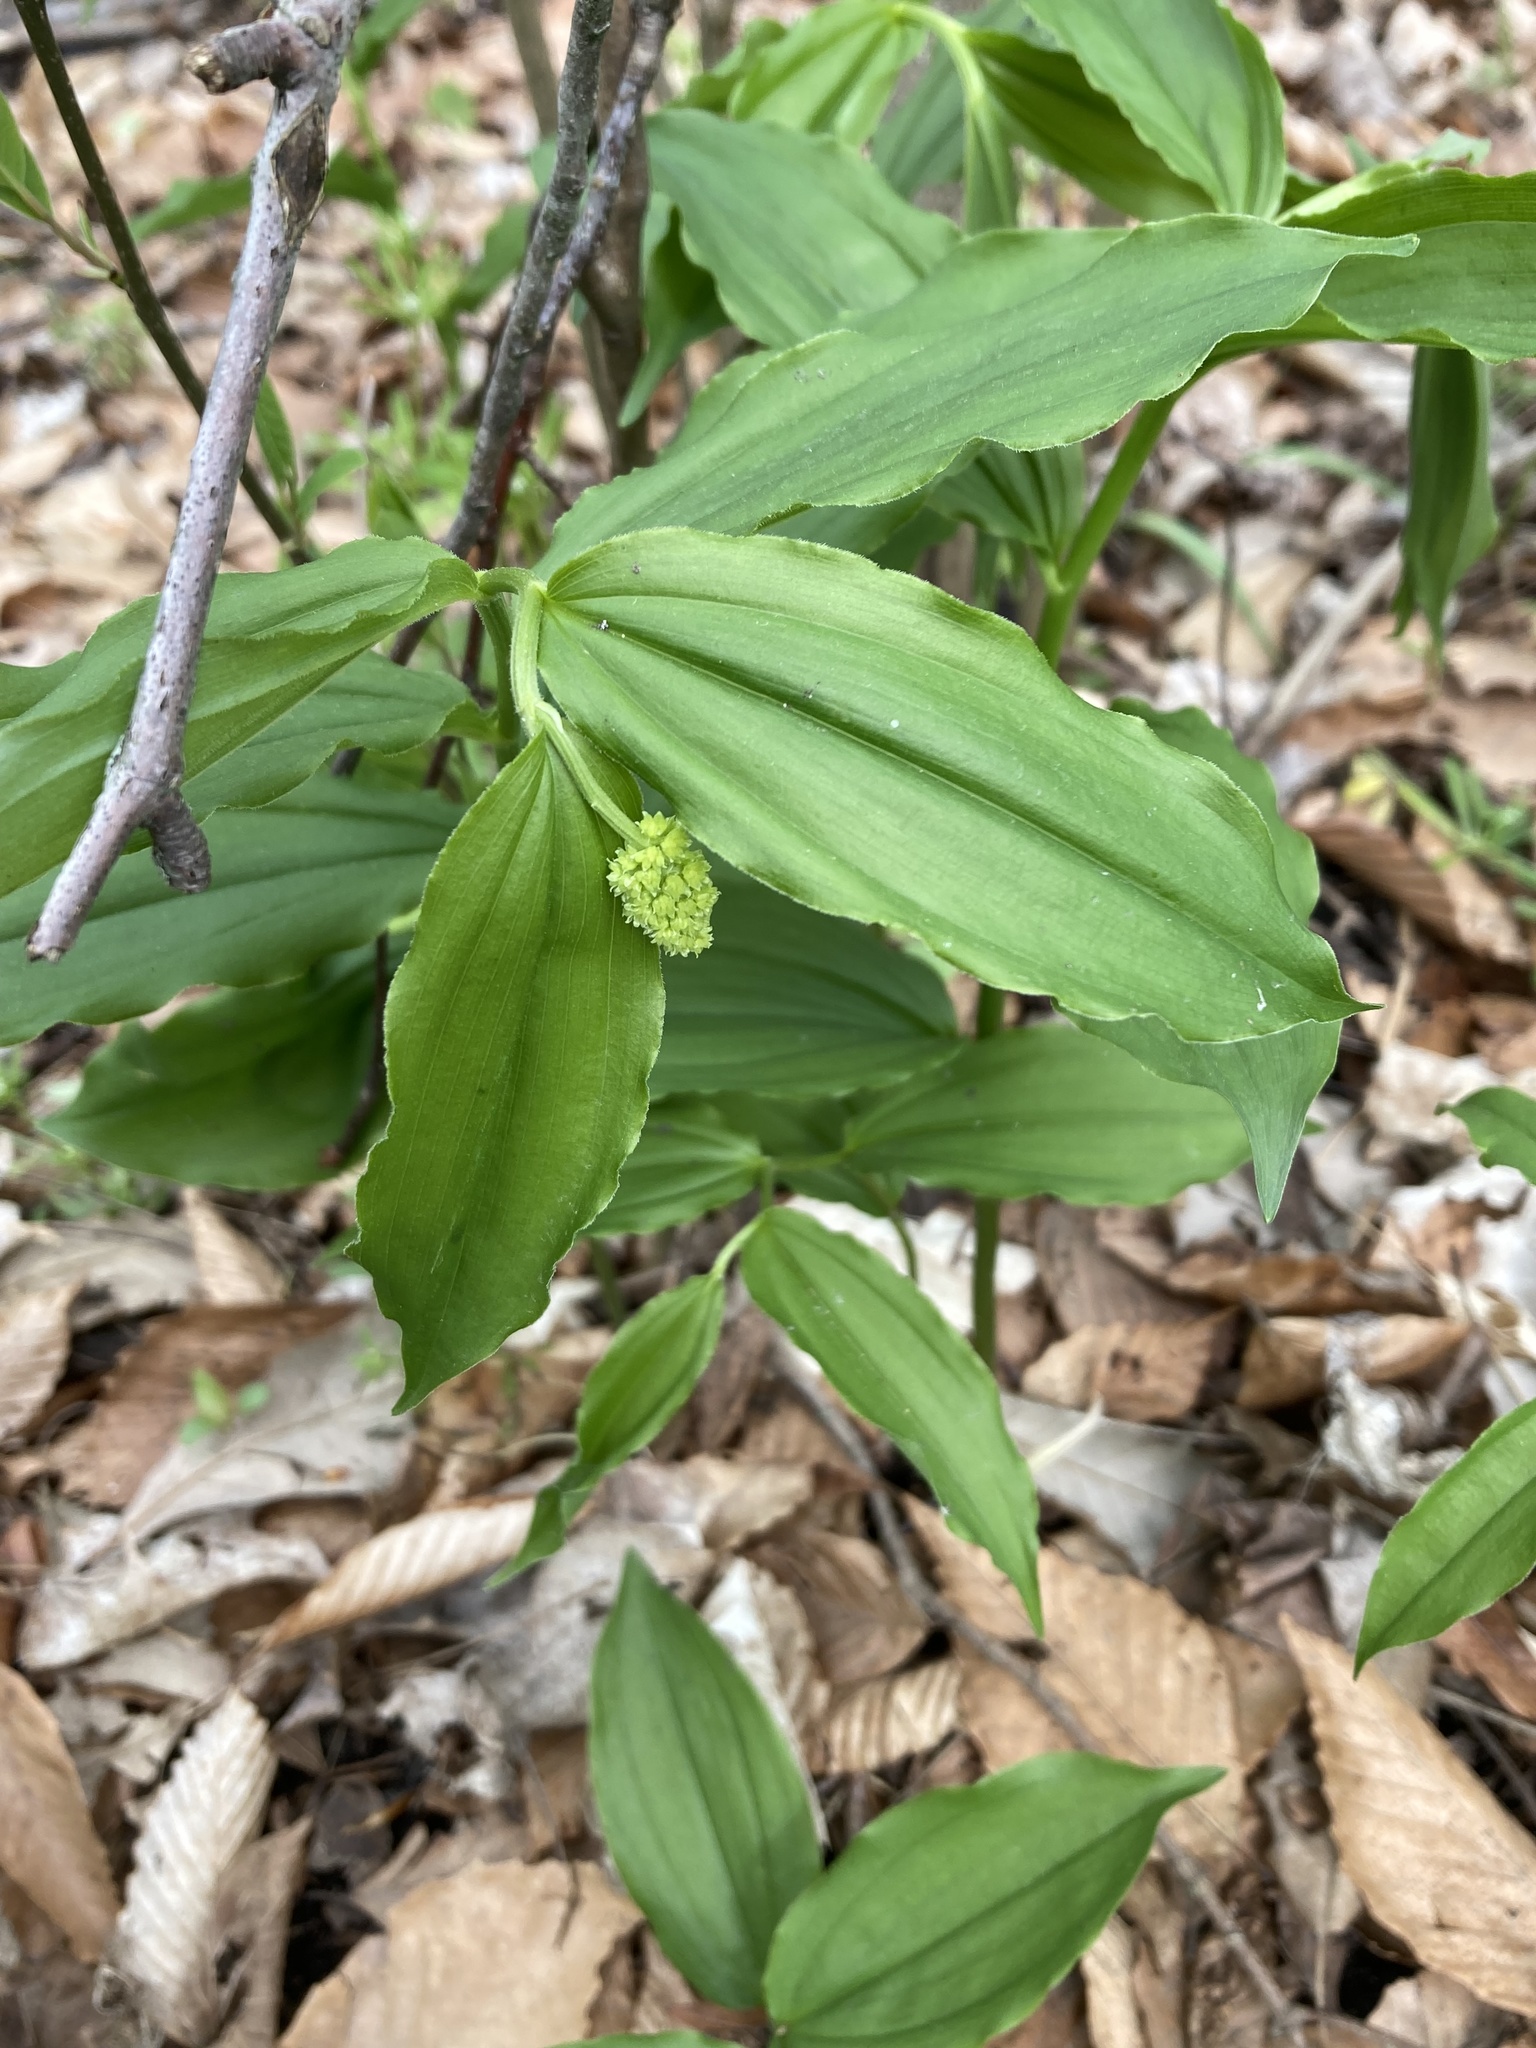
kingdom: Plantae
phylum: Tracheophyta
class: Liliopsida
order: Asparagales
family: Asparagaceae
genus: Maianthemum
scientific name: Maianthemum racemosum
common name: False spikenard
